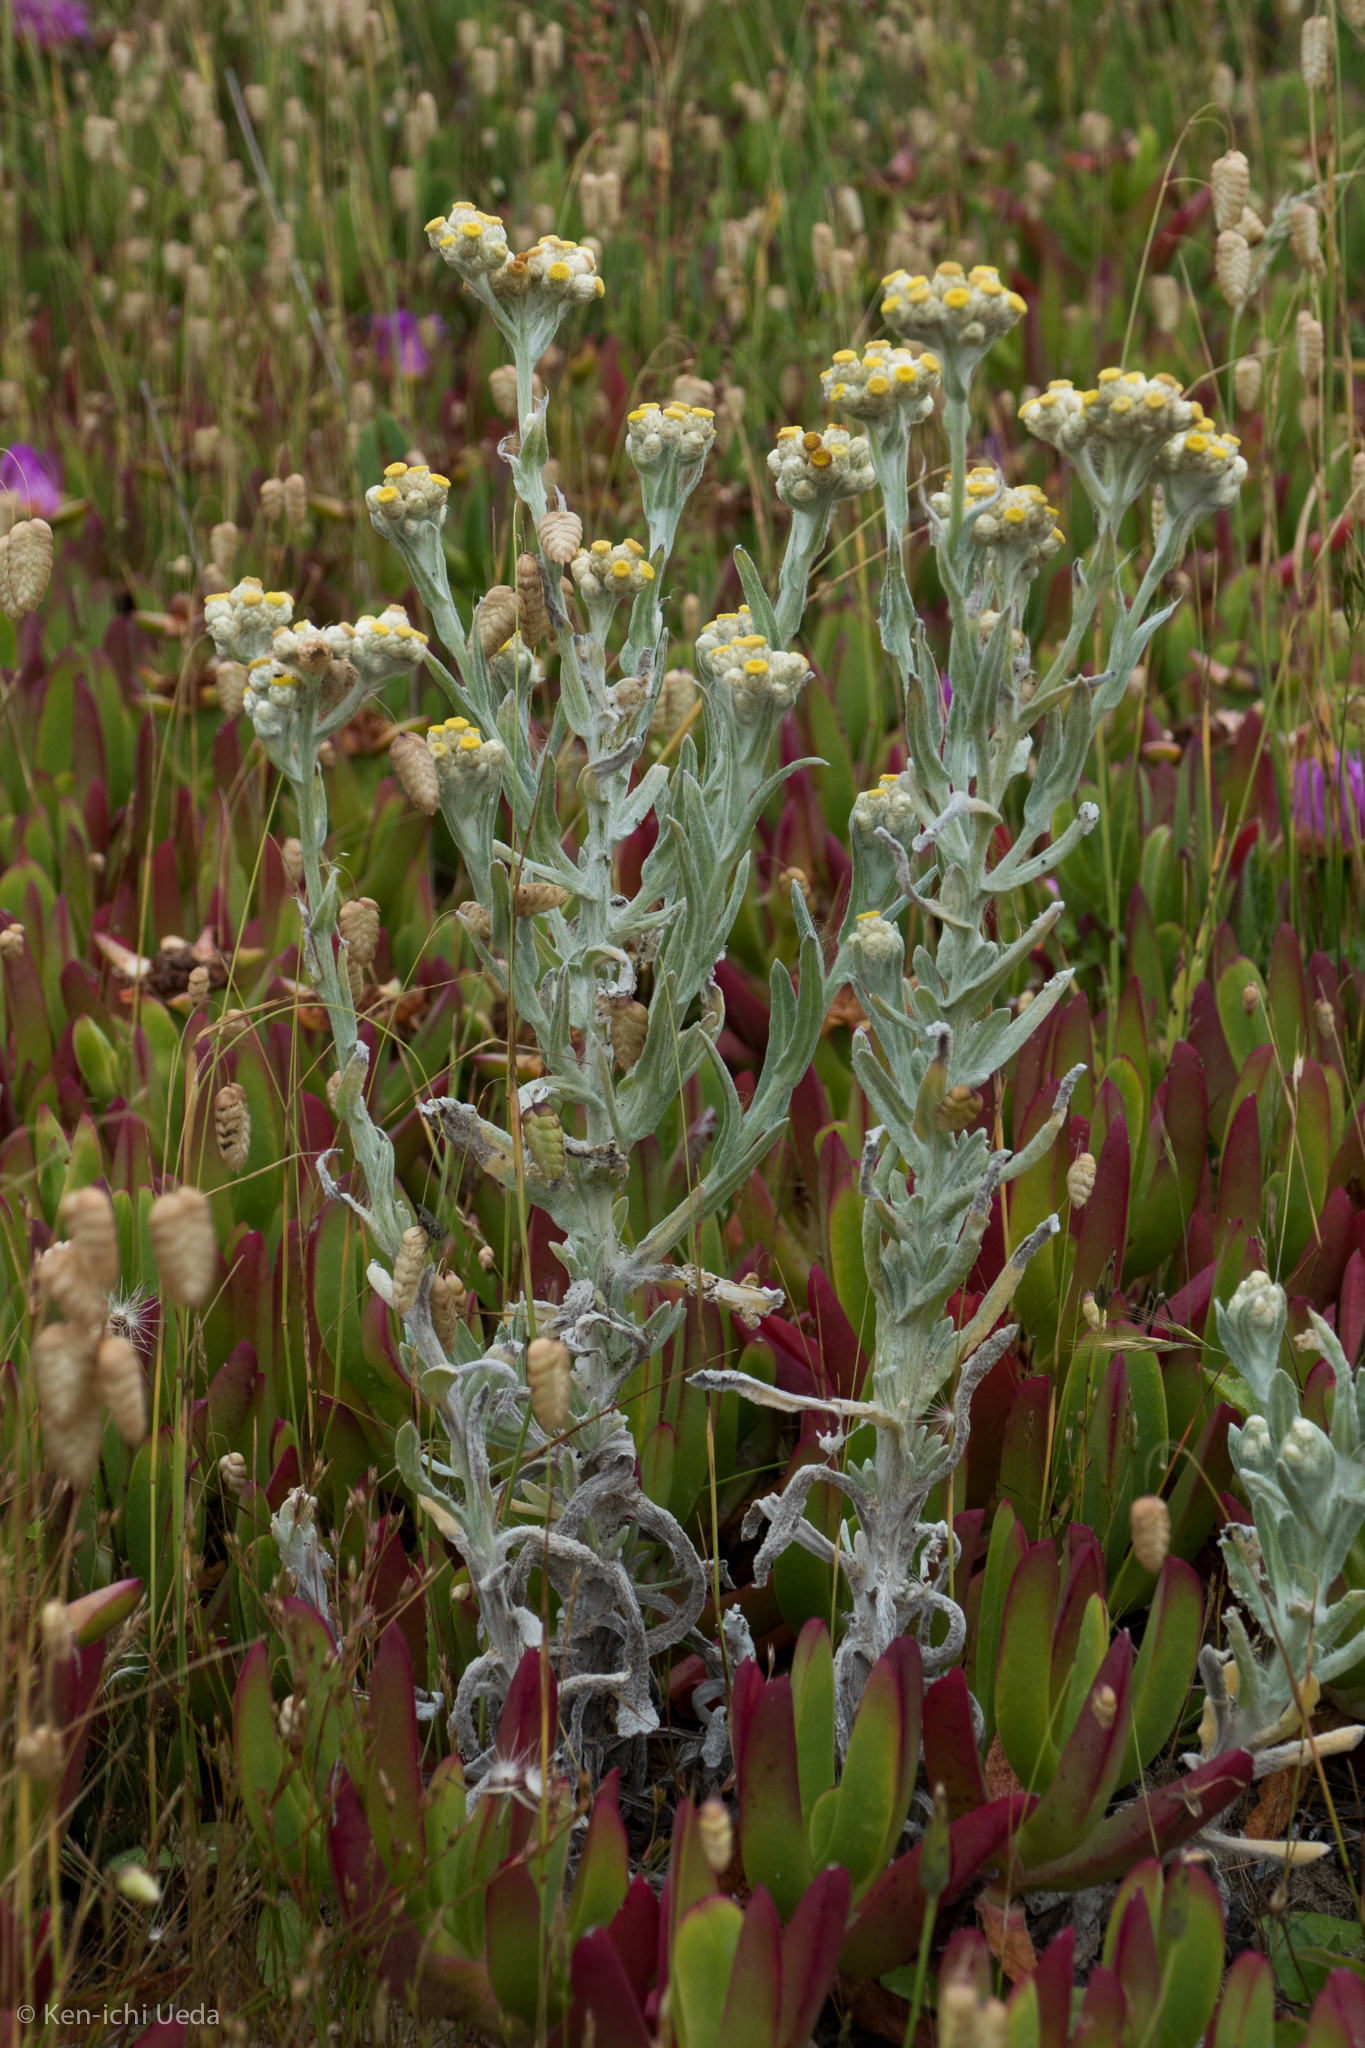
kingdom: Plantae
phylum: Tracheophyta
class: Magnoliopsida
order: Asterales
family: Asteraceae
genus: Pseudognaphalium
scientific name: Pseudognaphalium stramineum
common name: Cotton-batting-plant
